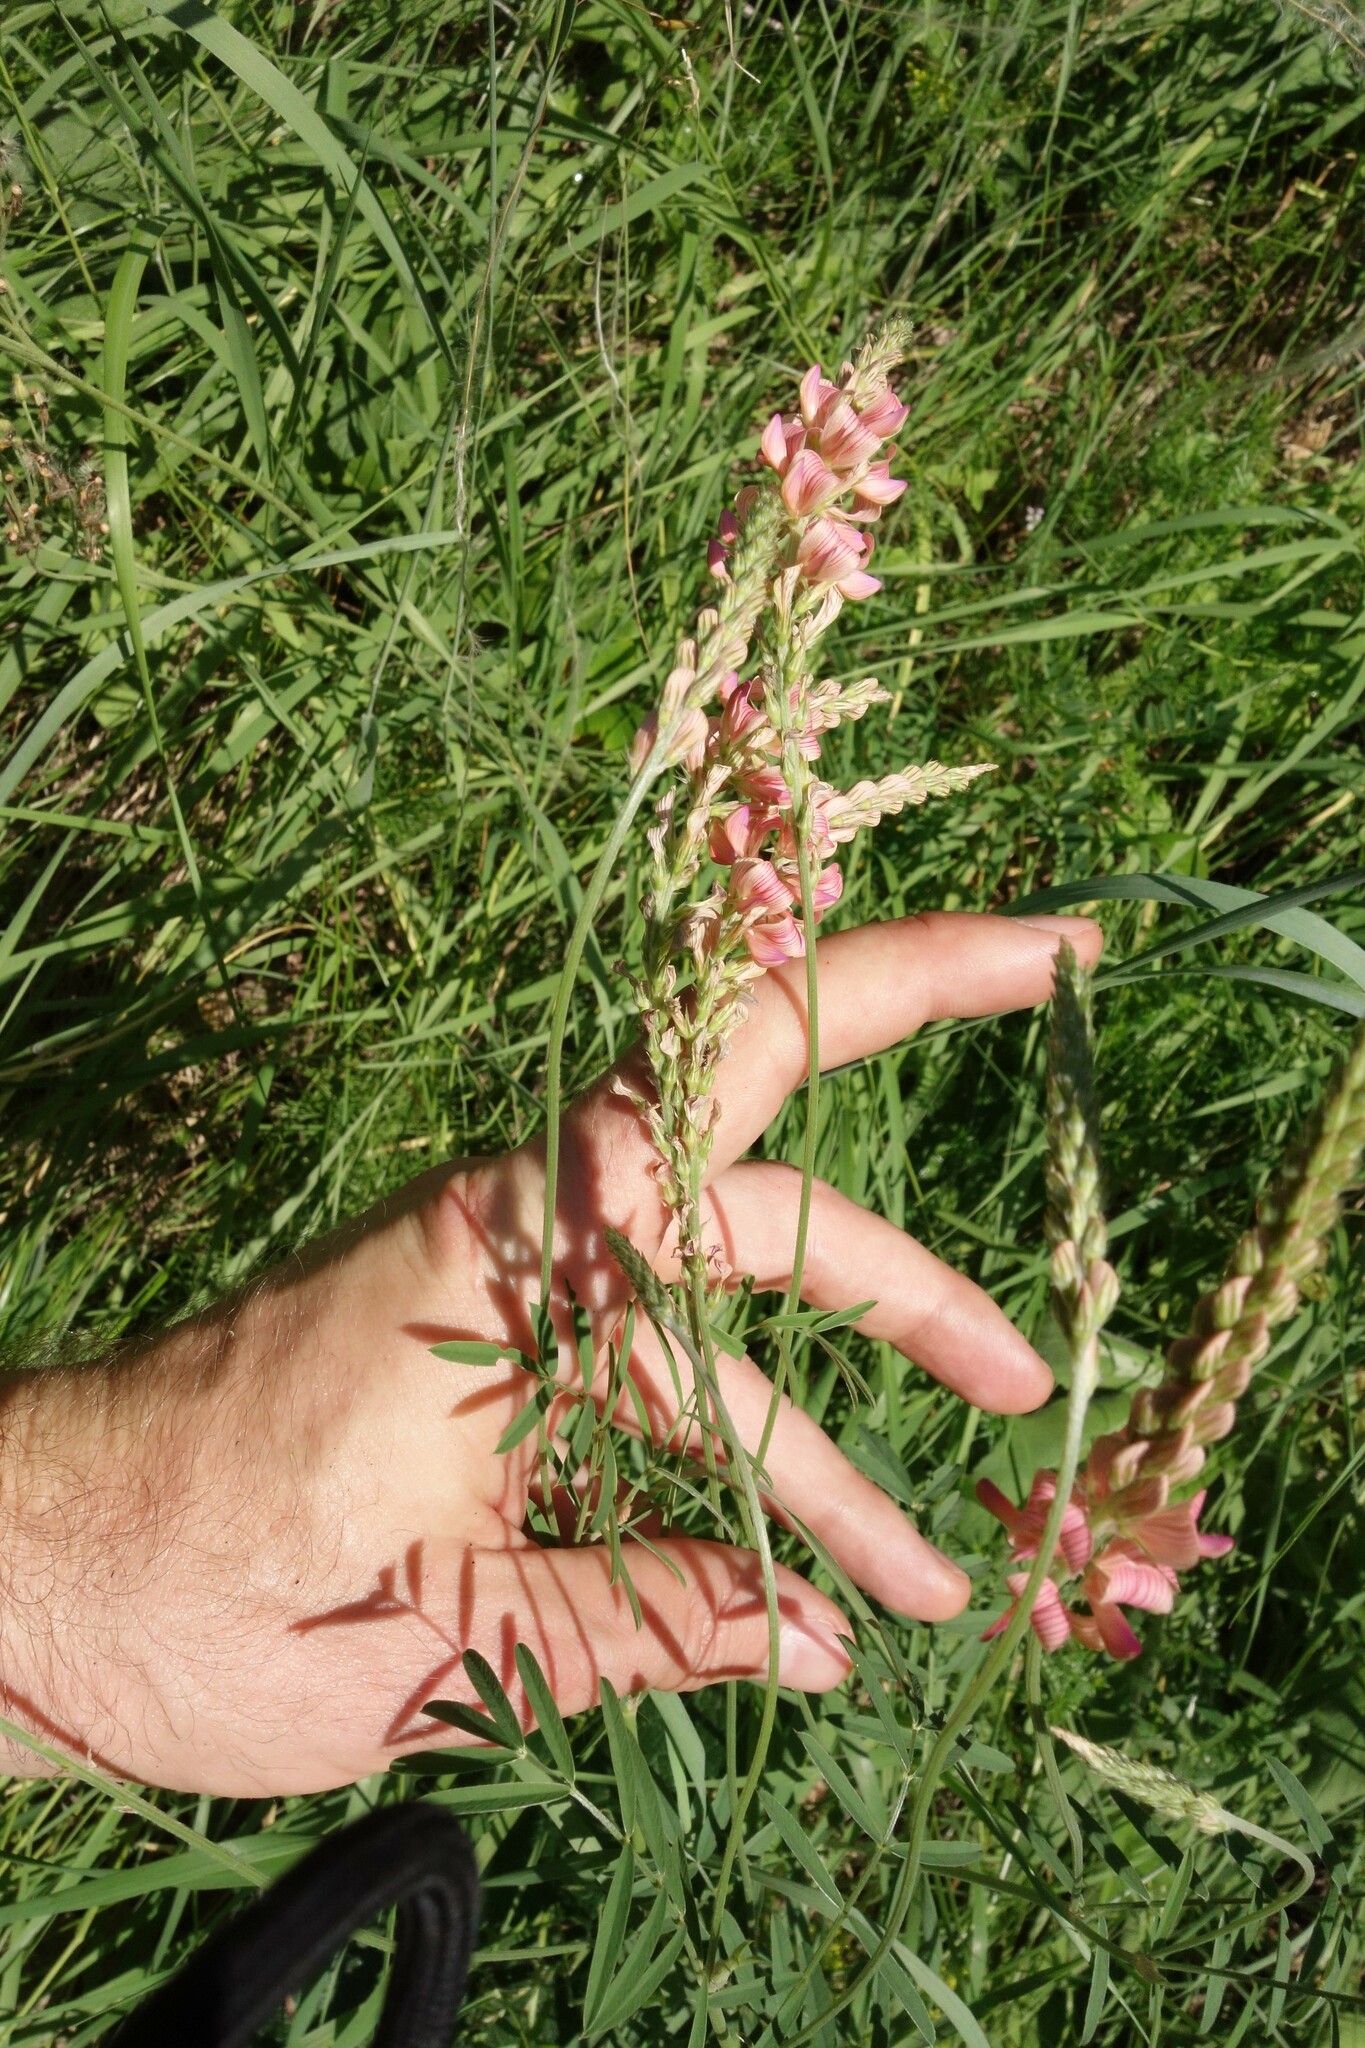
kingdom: Plantae
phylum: Tracheophyta
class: Magnoliopsida
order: Fabales
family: Fabaceae
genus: Onobrychis
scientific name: Onobrychis viciifolia
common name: Sainfoin
